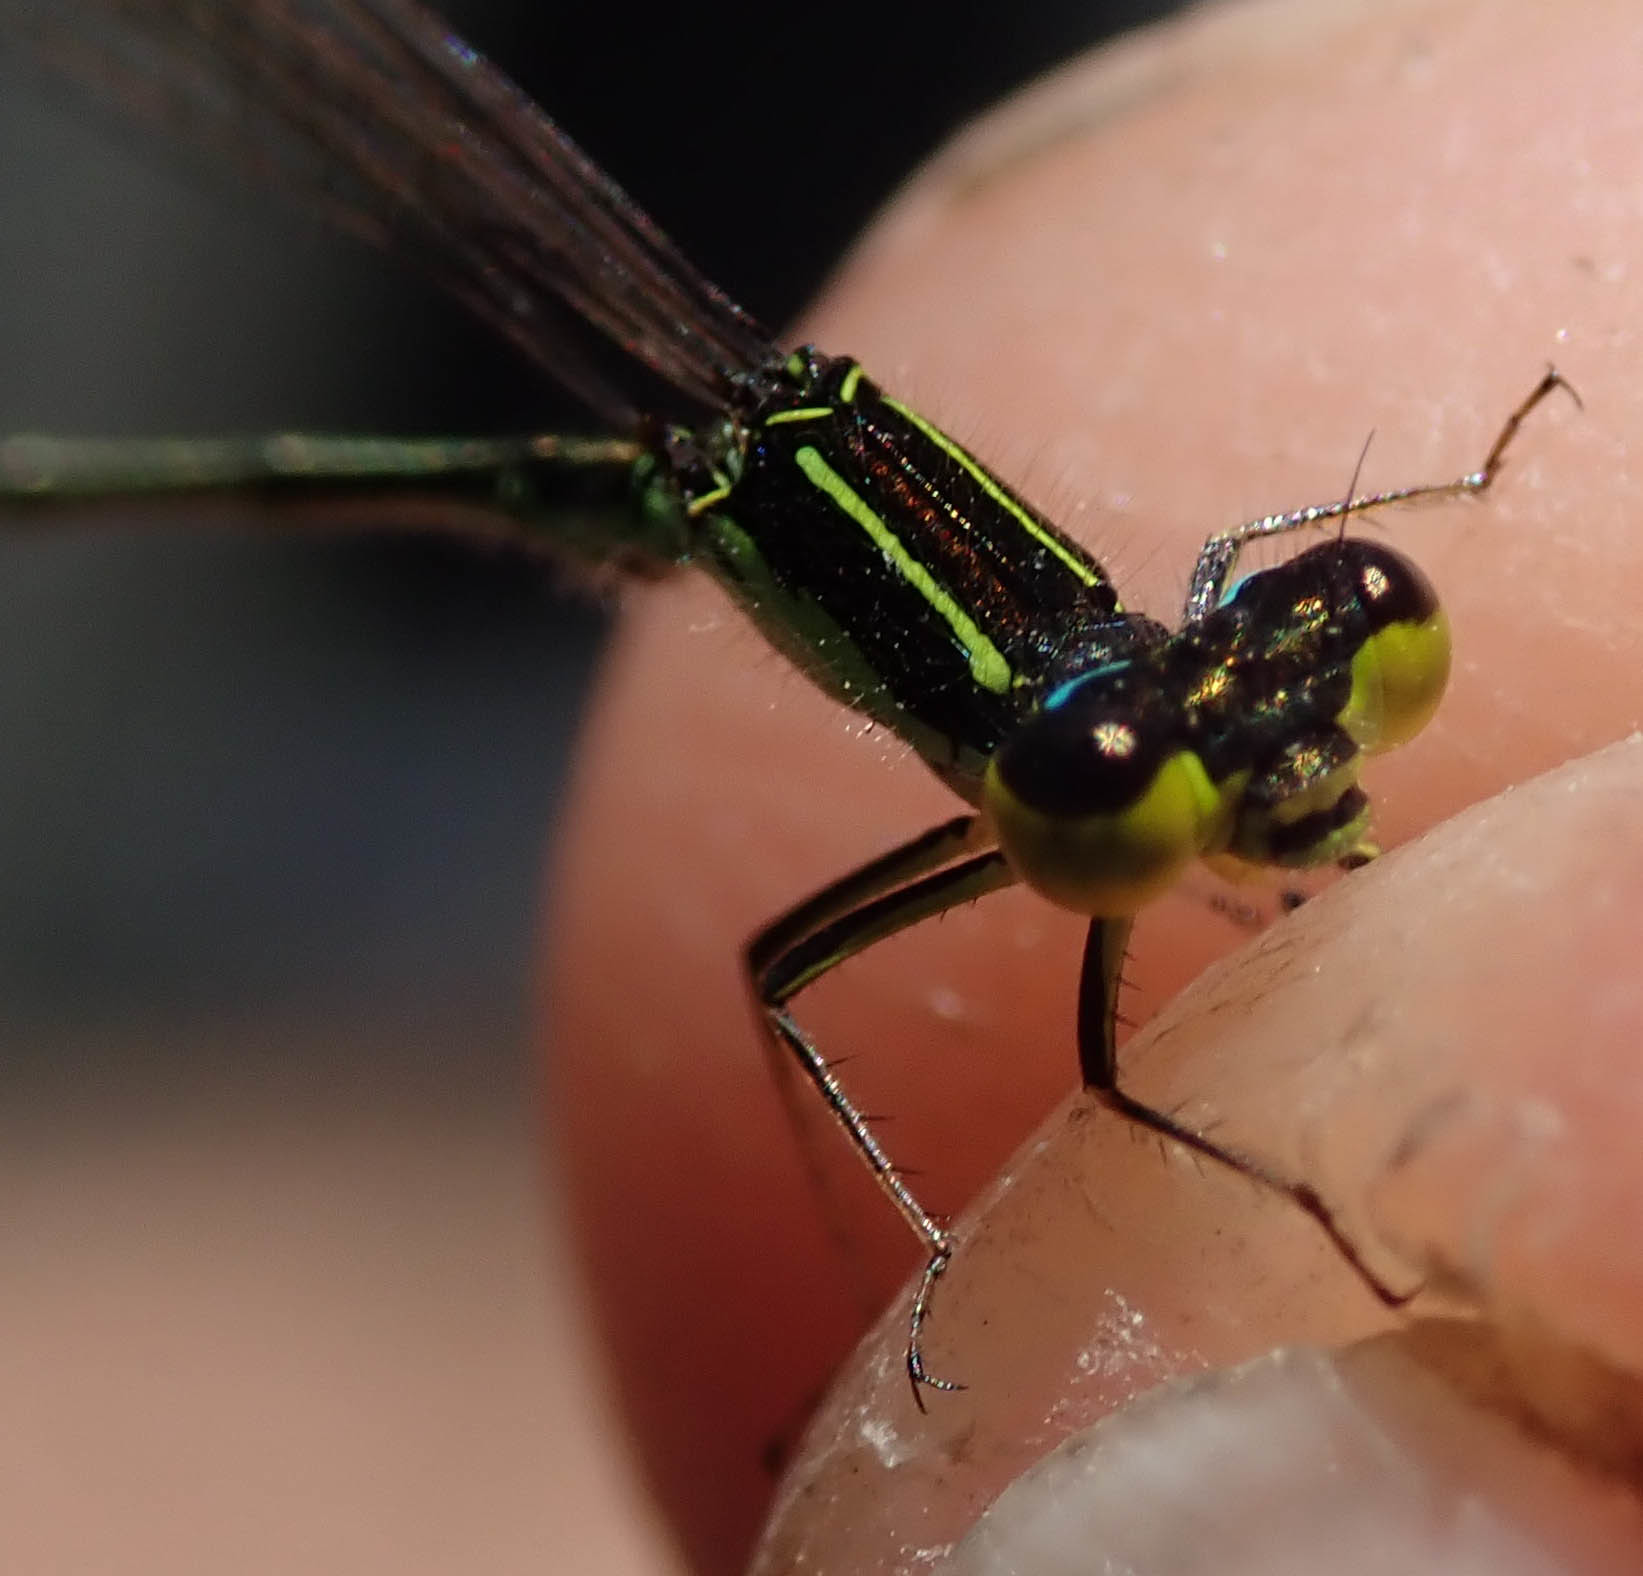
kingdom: Animalia
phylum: Arthropoda
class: Insecta
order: Odonata
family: Coenagrionidae
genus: Pinheyagrion
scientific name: Pinheyagrion angolicum
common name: Angola bluet
